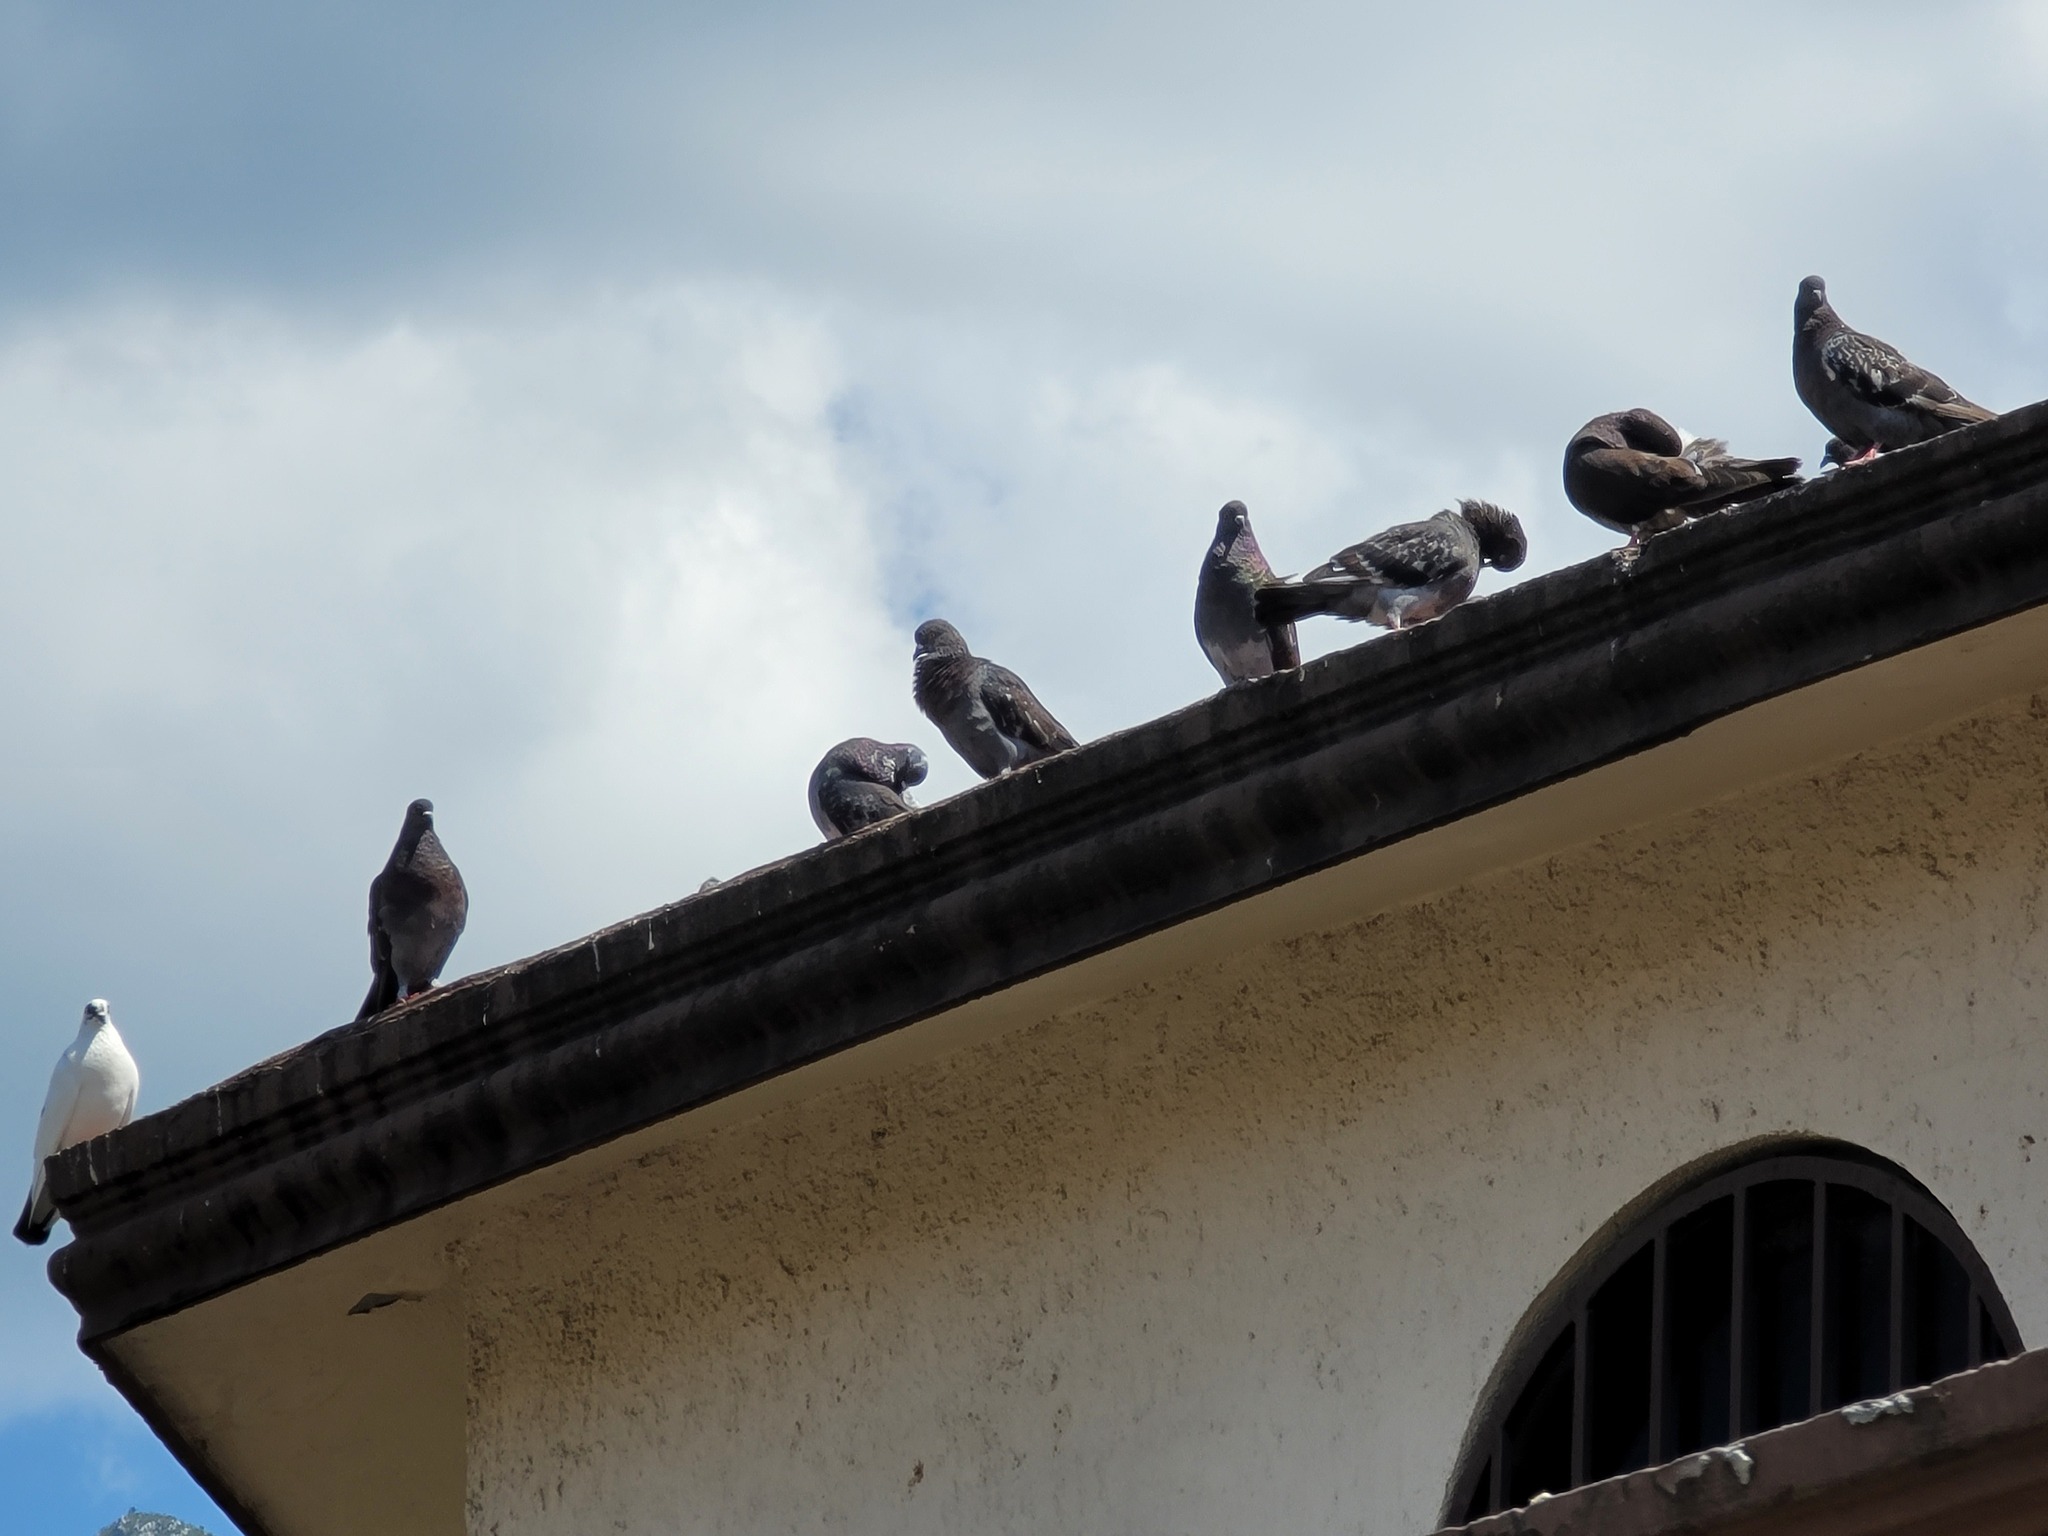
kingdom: Animalia
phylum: Chordata
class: Aves
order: Columbiformes
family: Columbidae
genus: Columba
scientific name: Columba livia
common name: Rock pigeon
